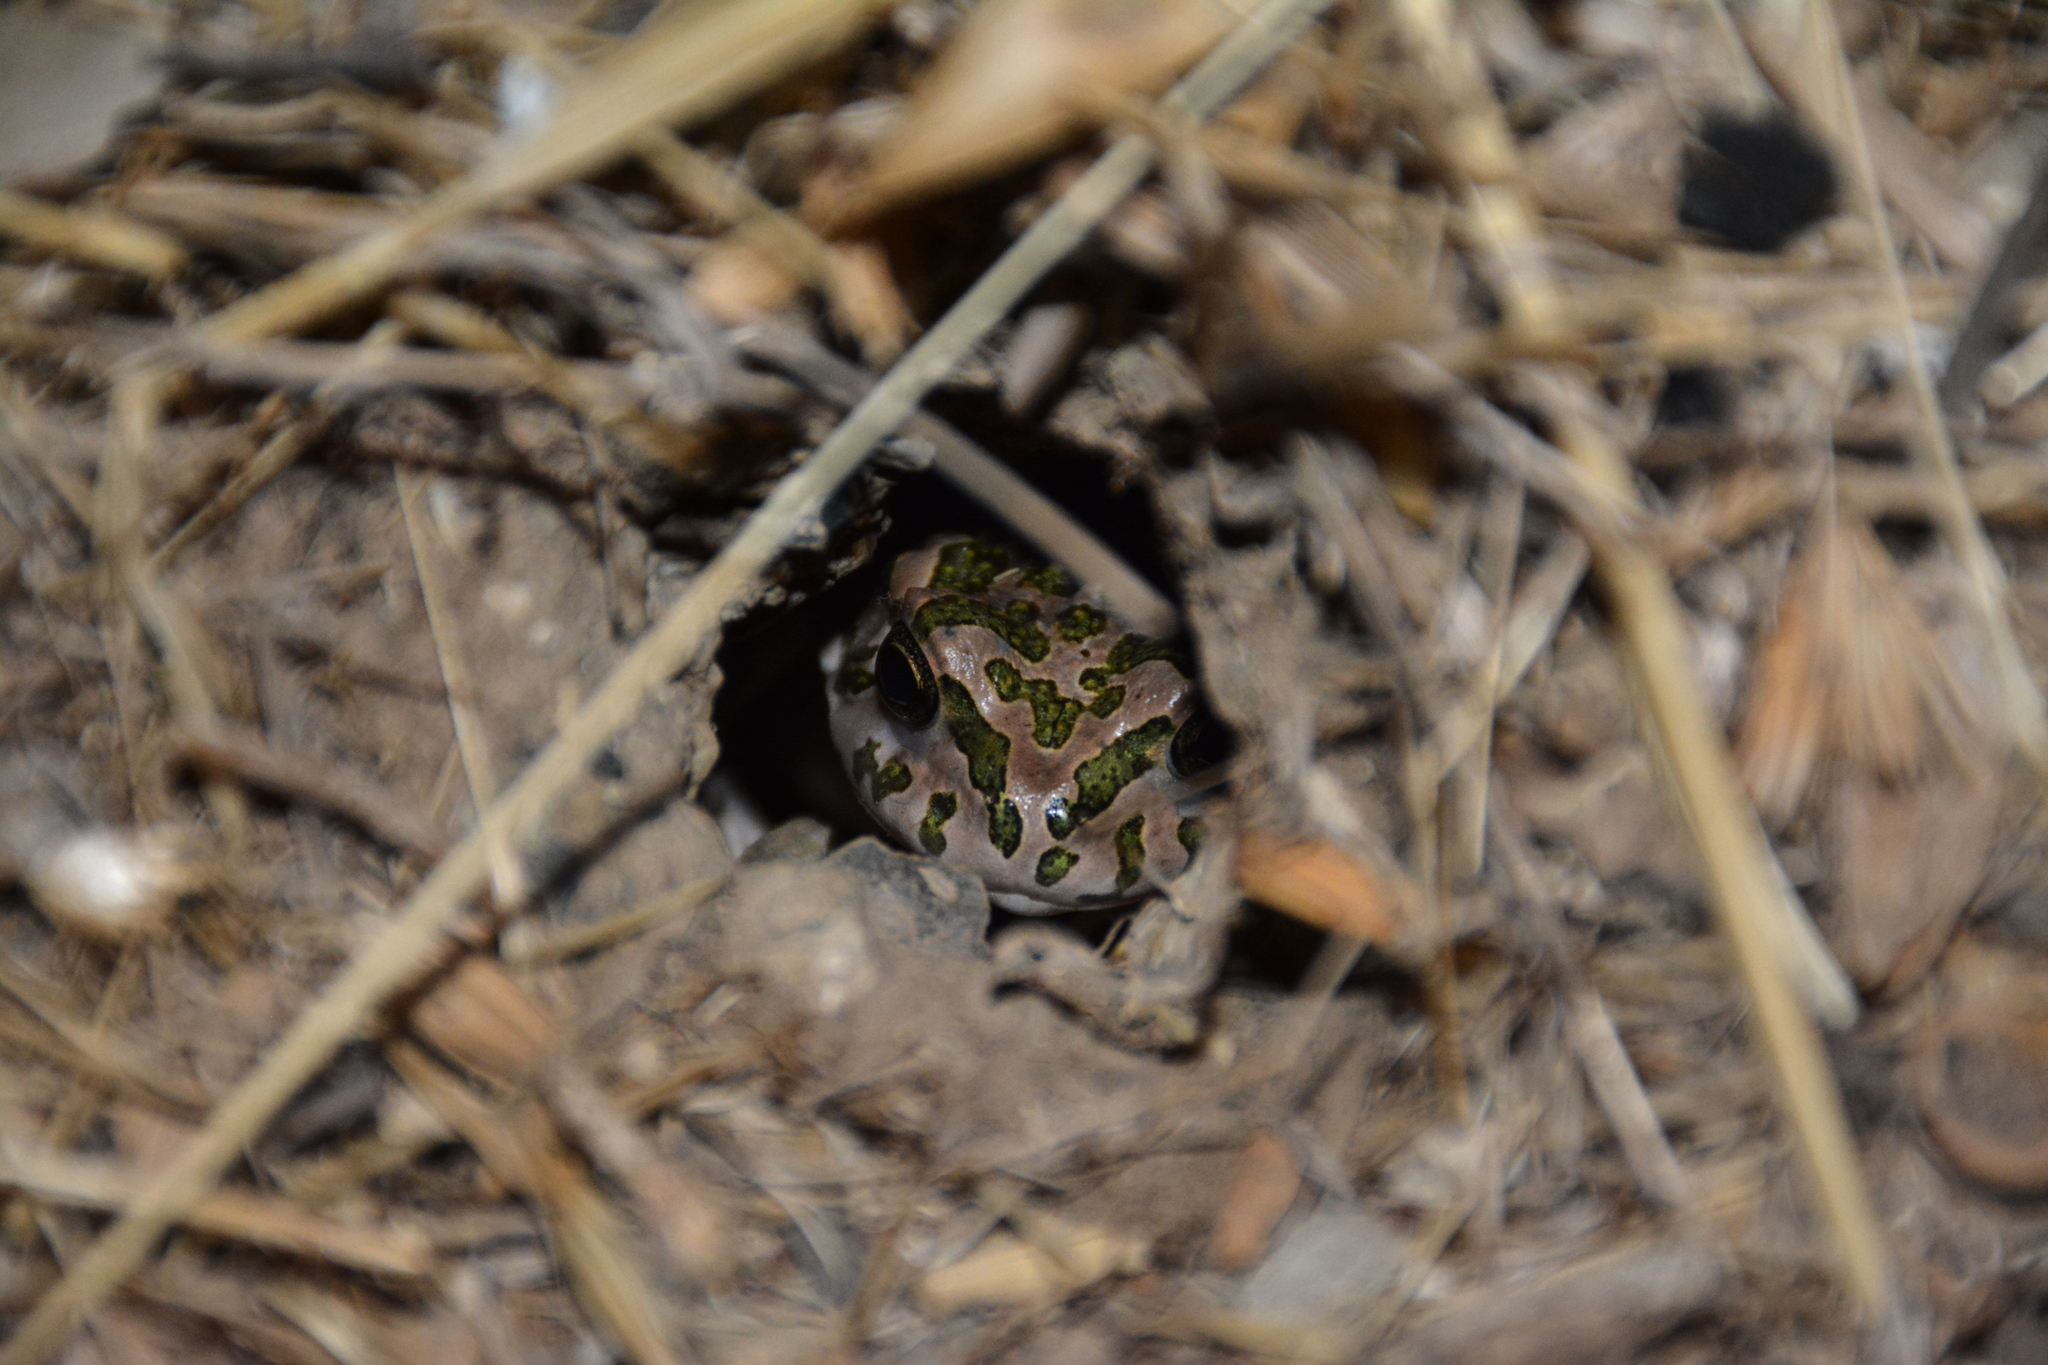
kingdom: Animalia
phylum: Chordata
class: Amphibia
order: Anura
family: Bufonidae
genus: Bufotes
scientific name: Bufotes viridis
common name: European green toad
